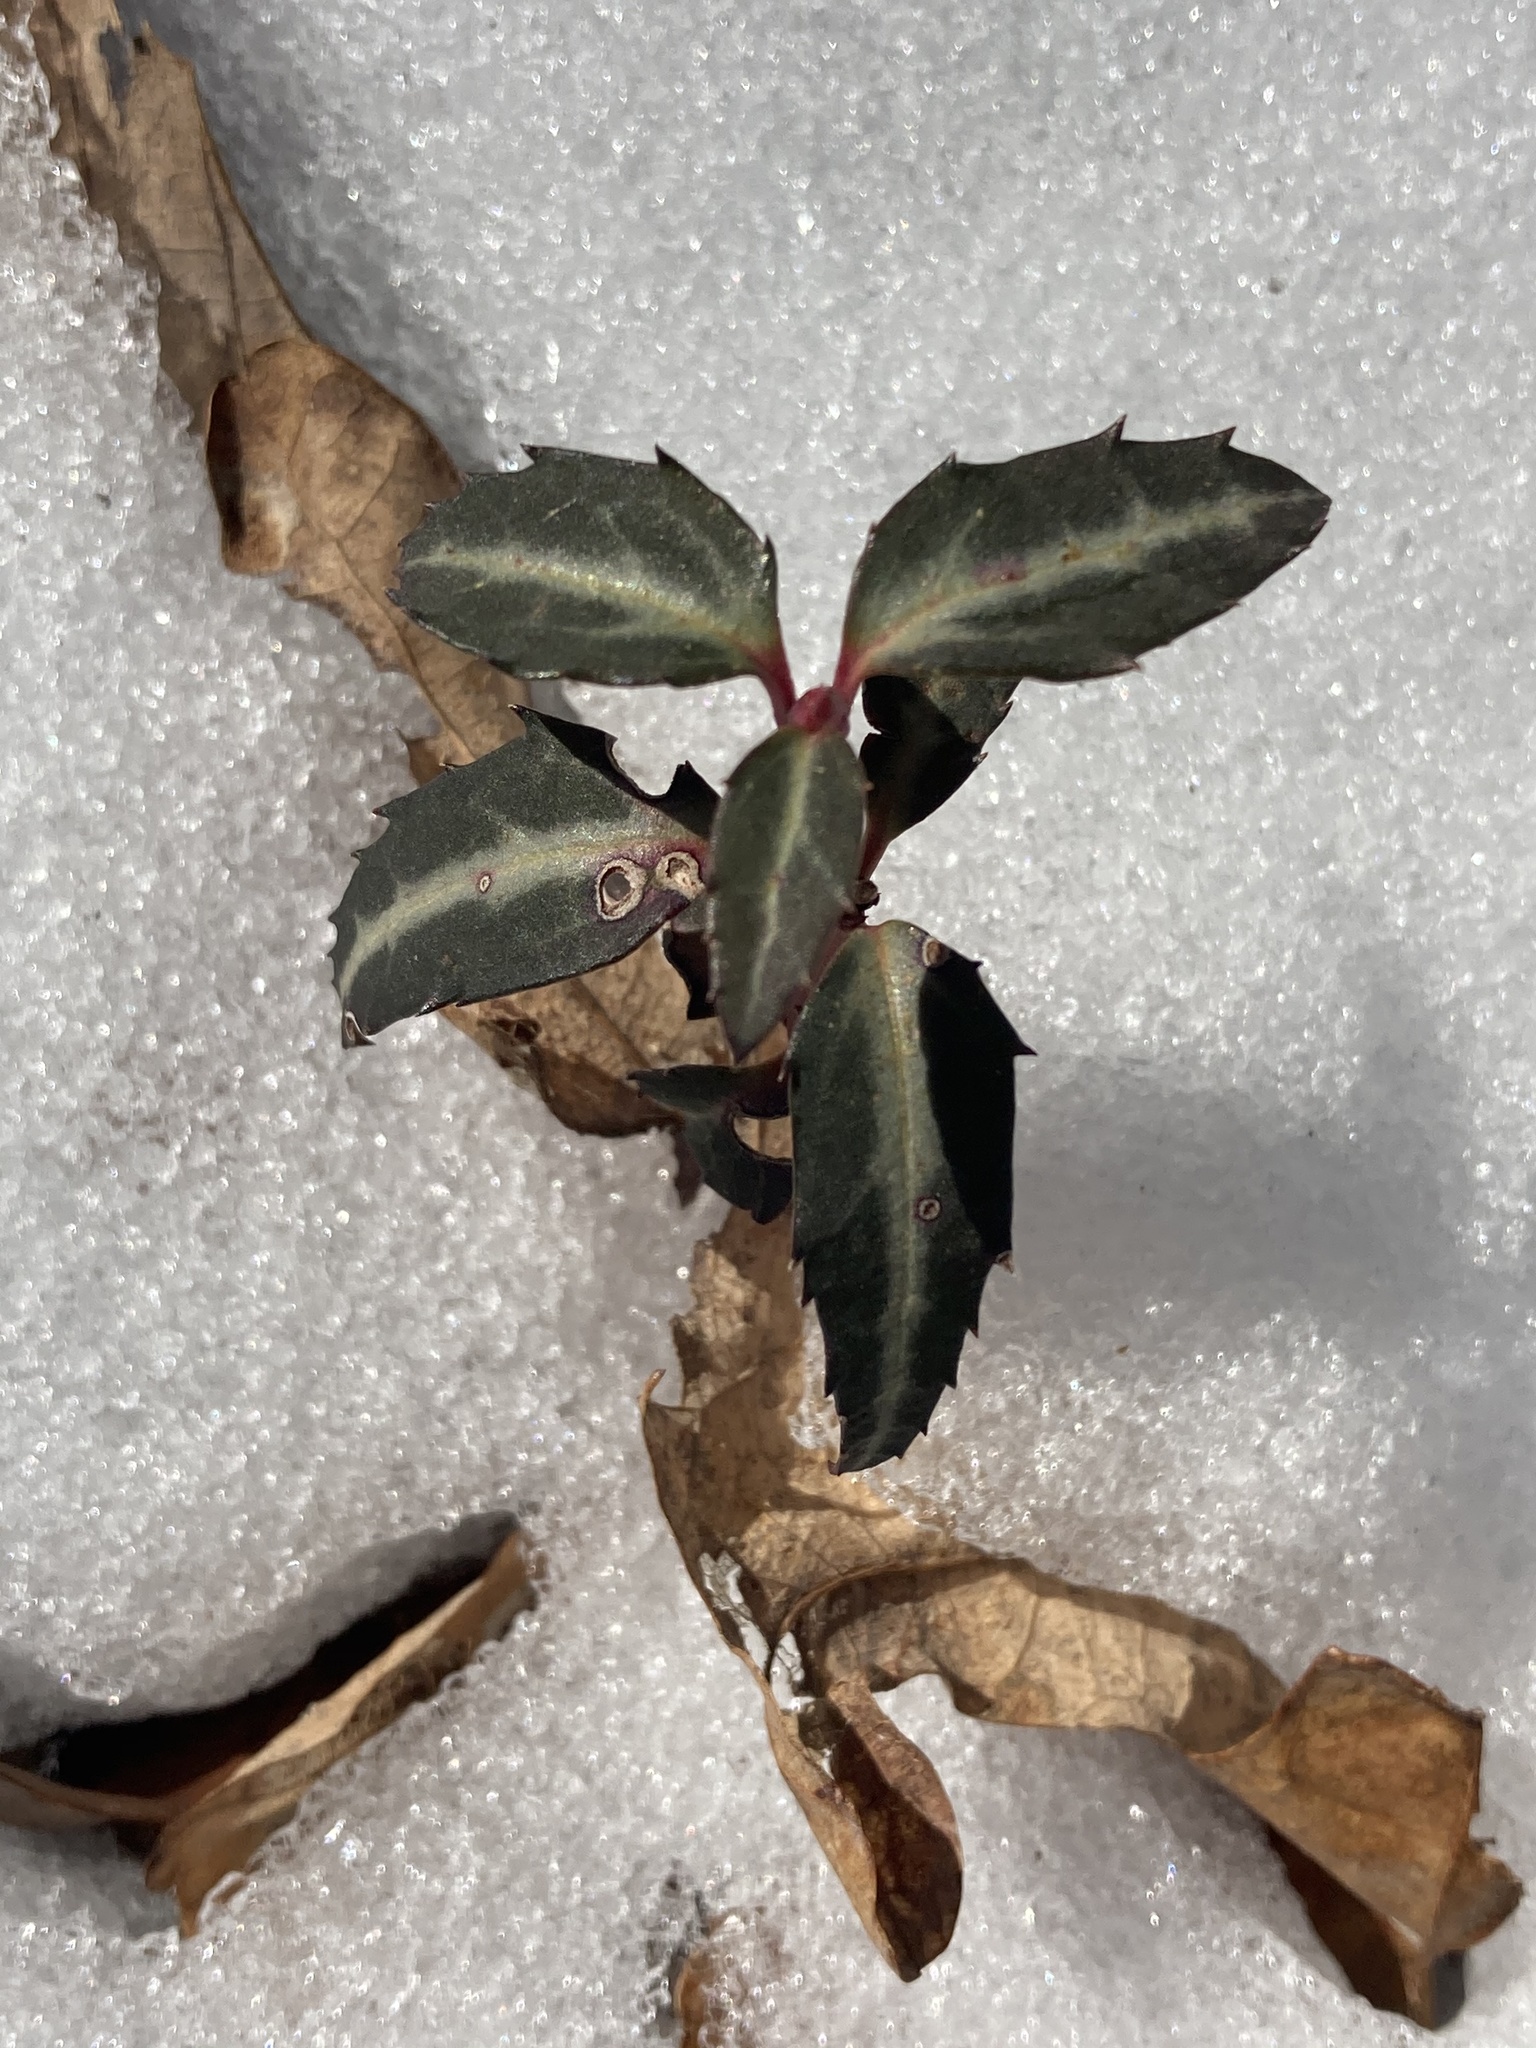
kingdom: Plantae
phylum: Tracheophyta
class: Magnoliopsida
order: Ericales
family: Ericaceae
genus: Chimaphila
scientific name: Chimaphila maculata
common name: Spotted pipsissewa
